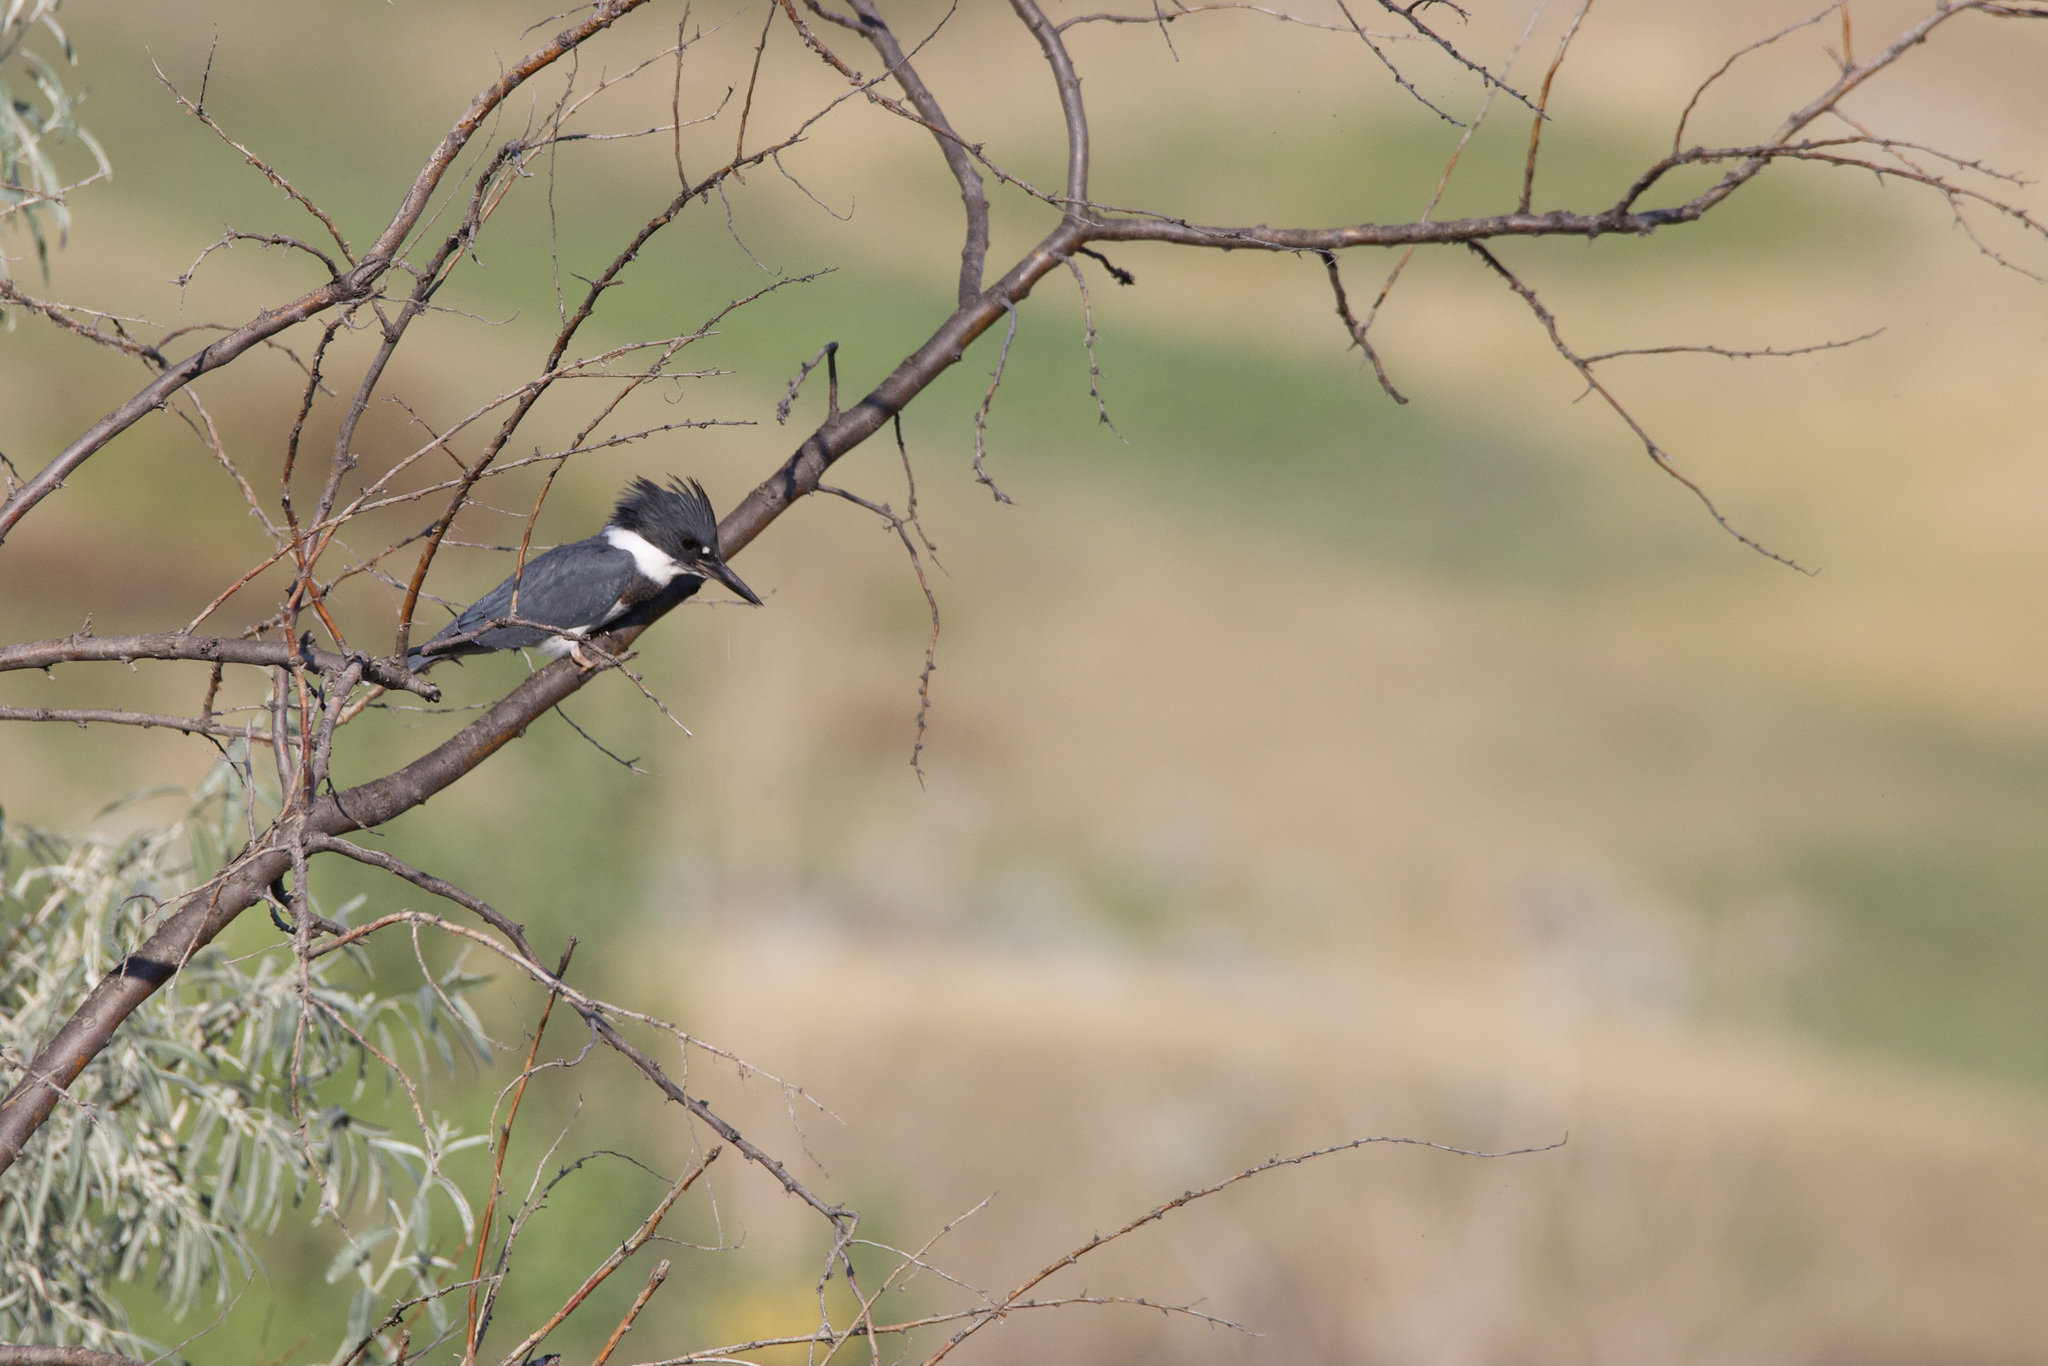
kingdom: Animalia
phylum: Chordata
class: Aves
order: Coraciiformes
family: Alcedinidae
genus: Megaceryle
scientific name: Megaceryle alcyon
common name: Belted kingfisher
